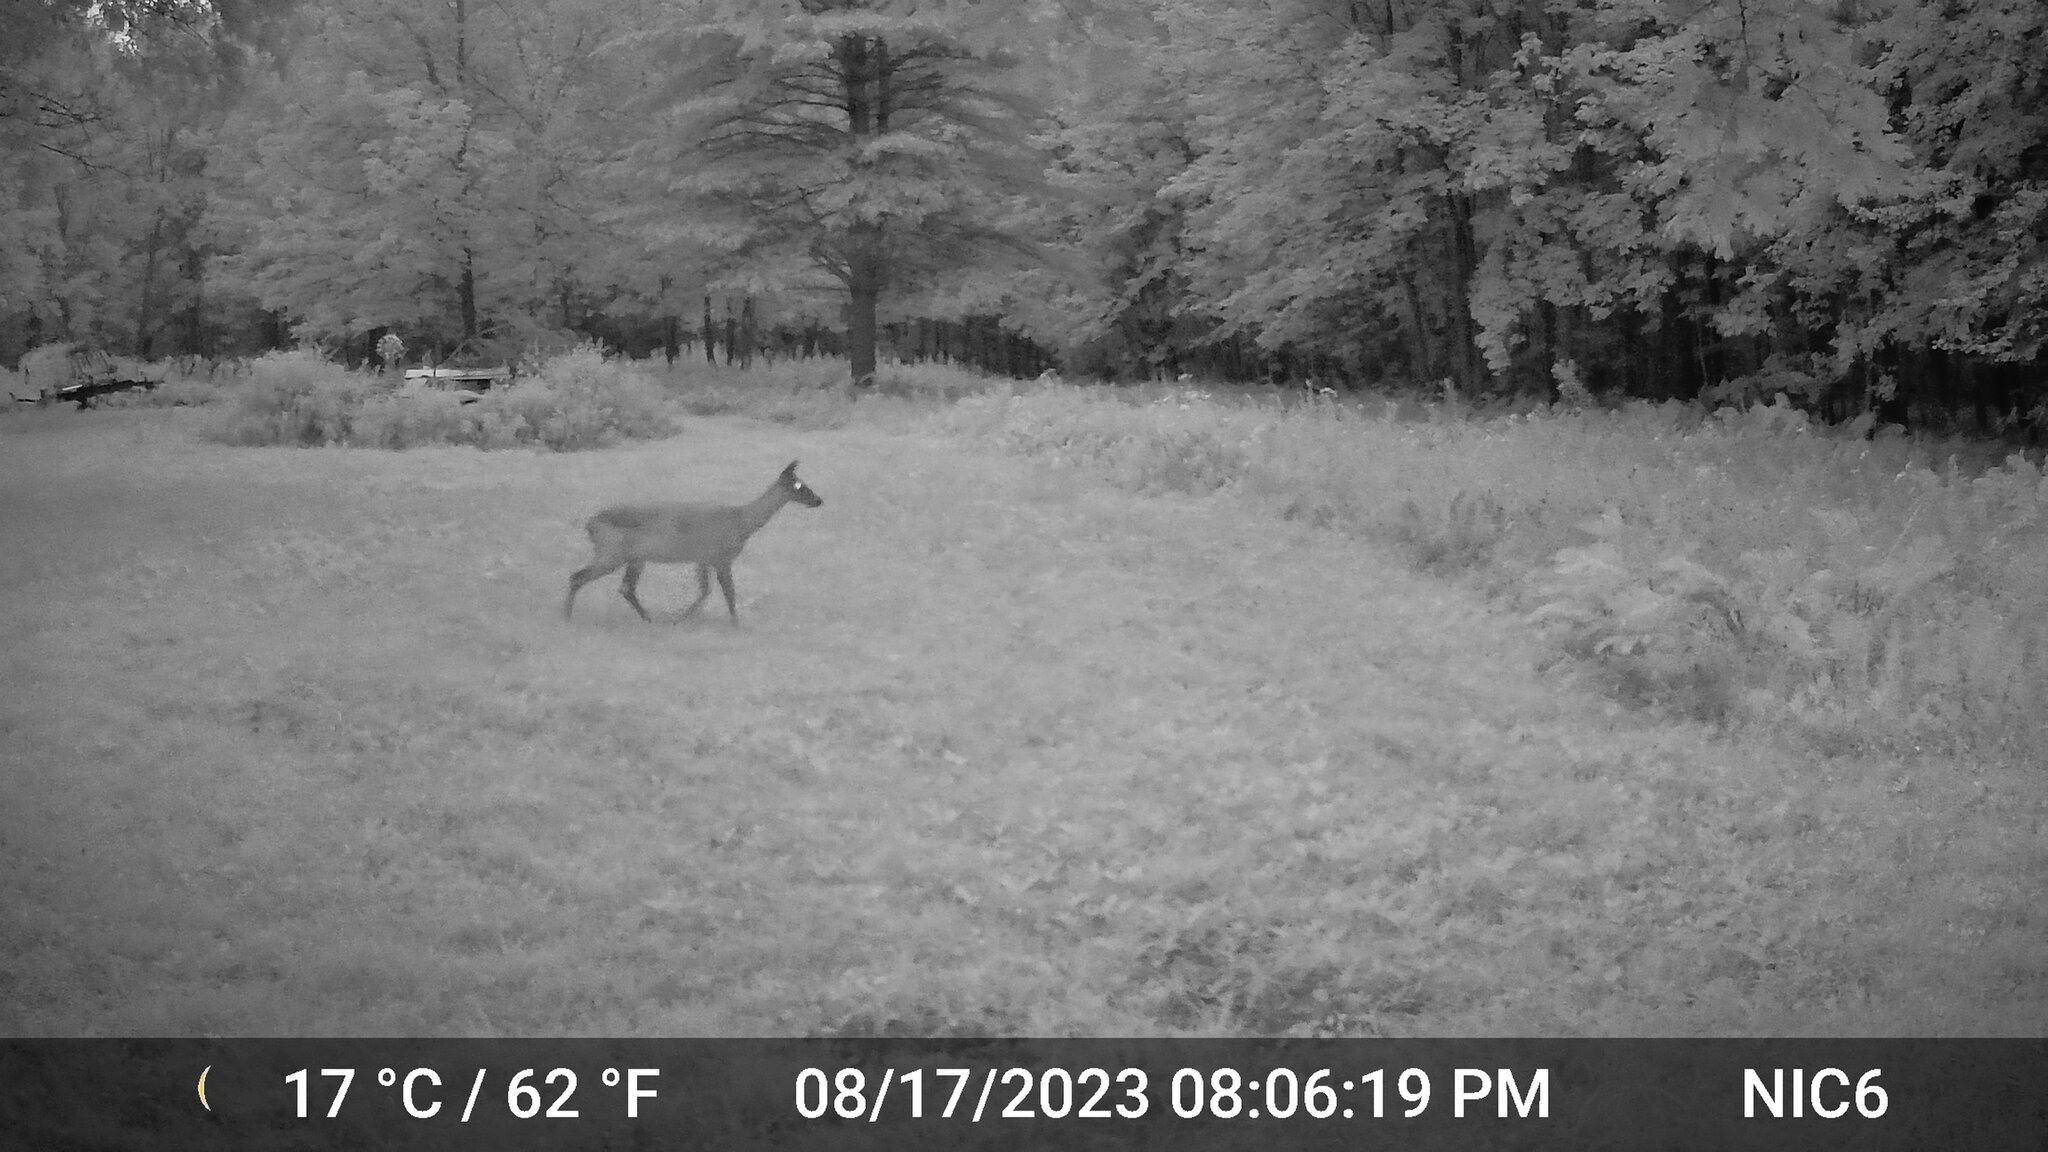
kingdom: Animalia
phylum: Chordata
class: Mammalia
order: Artiodactyla
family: Cervidae
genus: Odocoileus
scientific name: Odocoileus virginianus
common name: White-tailed deer
